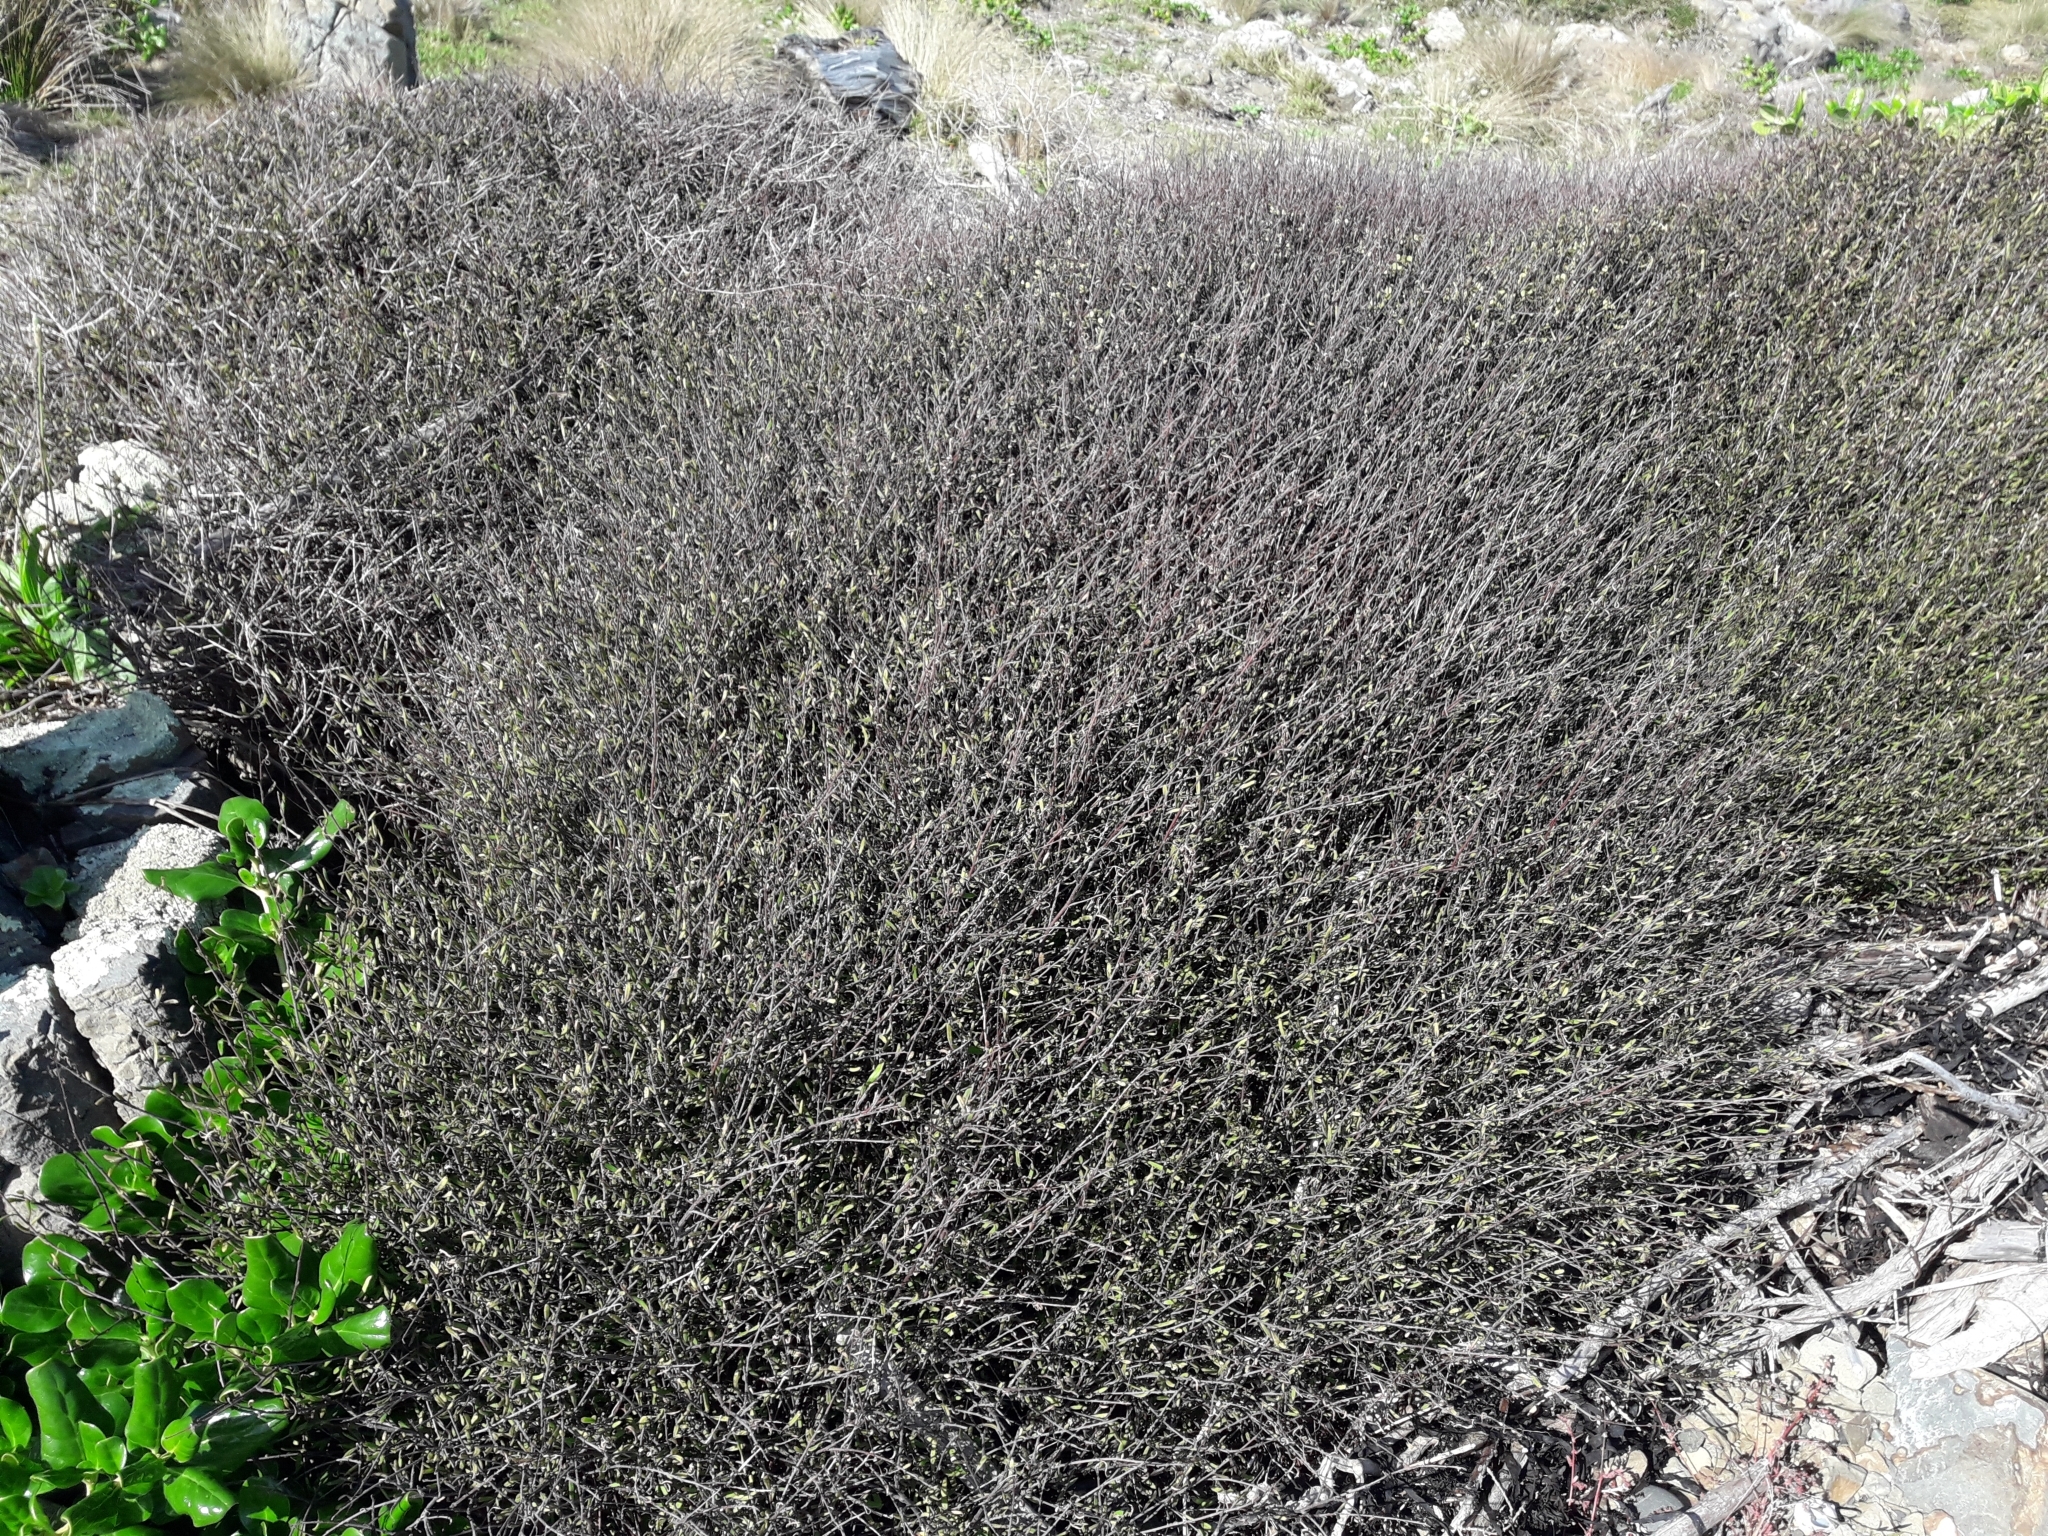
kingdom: Plantae
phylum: Tracheophyta
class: Magnoliopsida
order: Malvales
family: Malvaceae
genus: Plagianthus
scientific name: Plagianthus divaricatus
